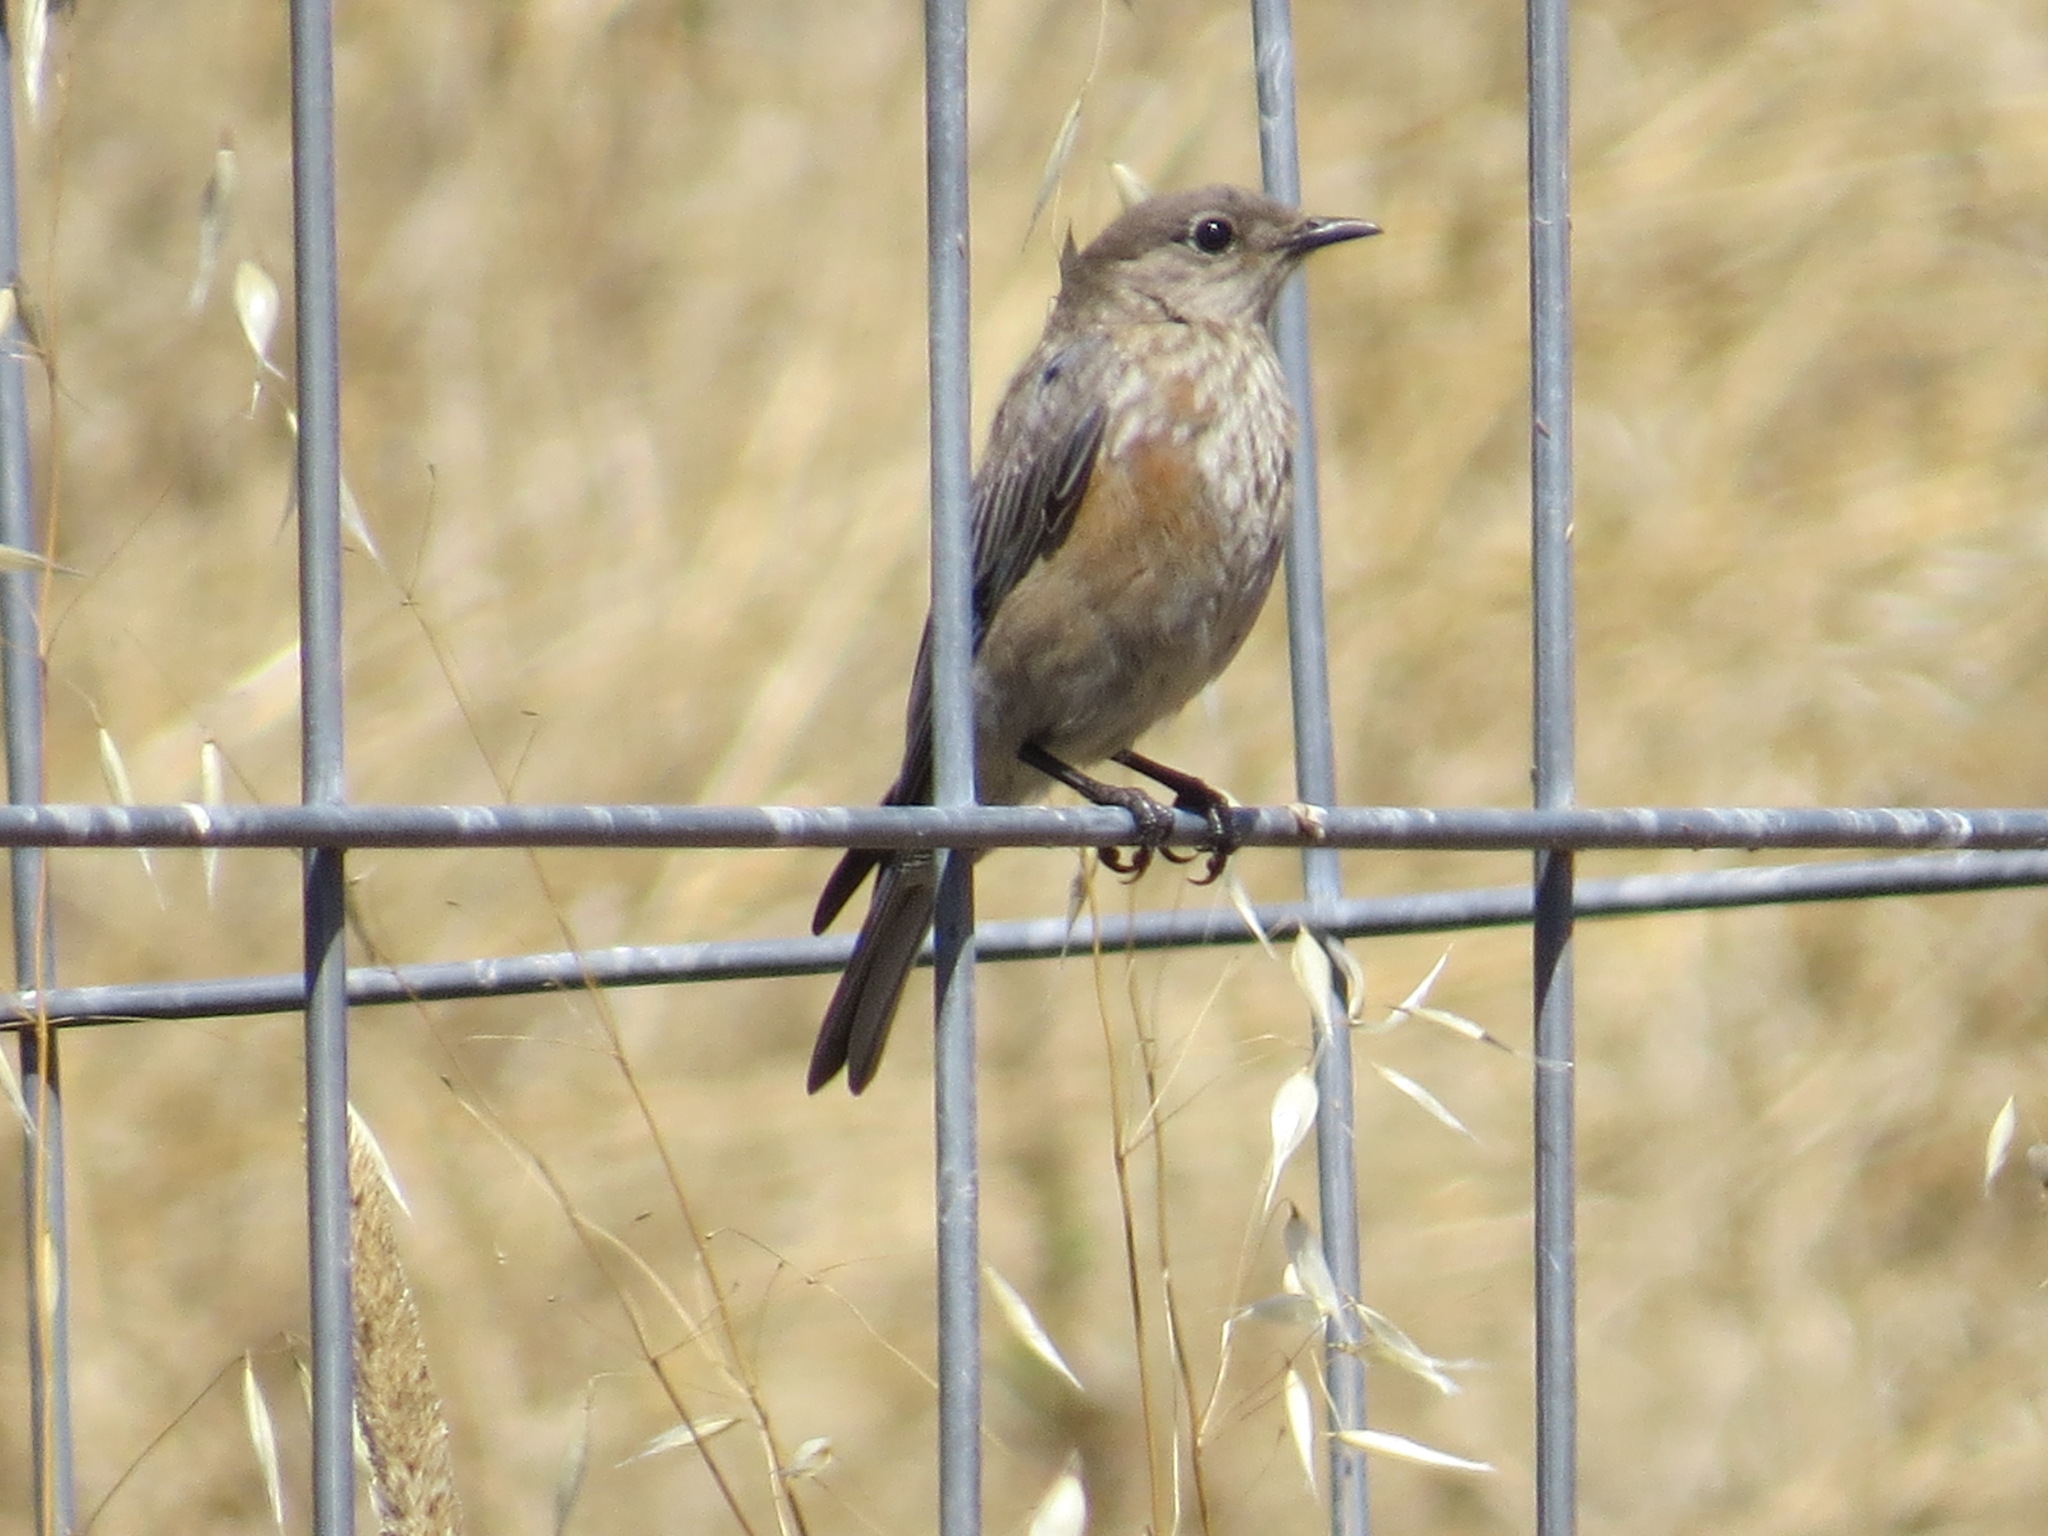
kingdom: Animalia
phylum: Chordata
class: Aves
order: Passeriformes
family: Turdidae
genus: Sialia
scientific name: Sialia mexicana
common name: Western bluebird
